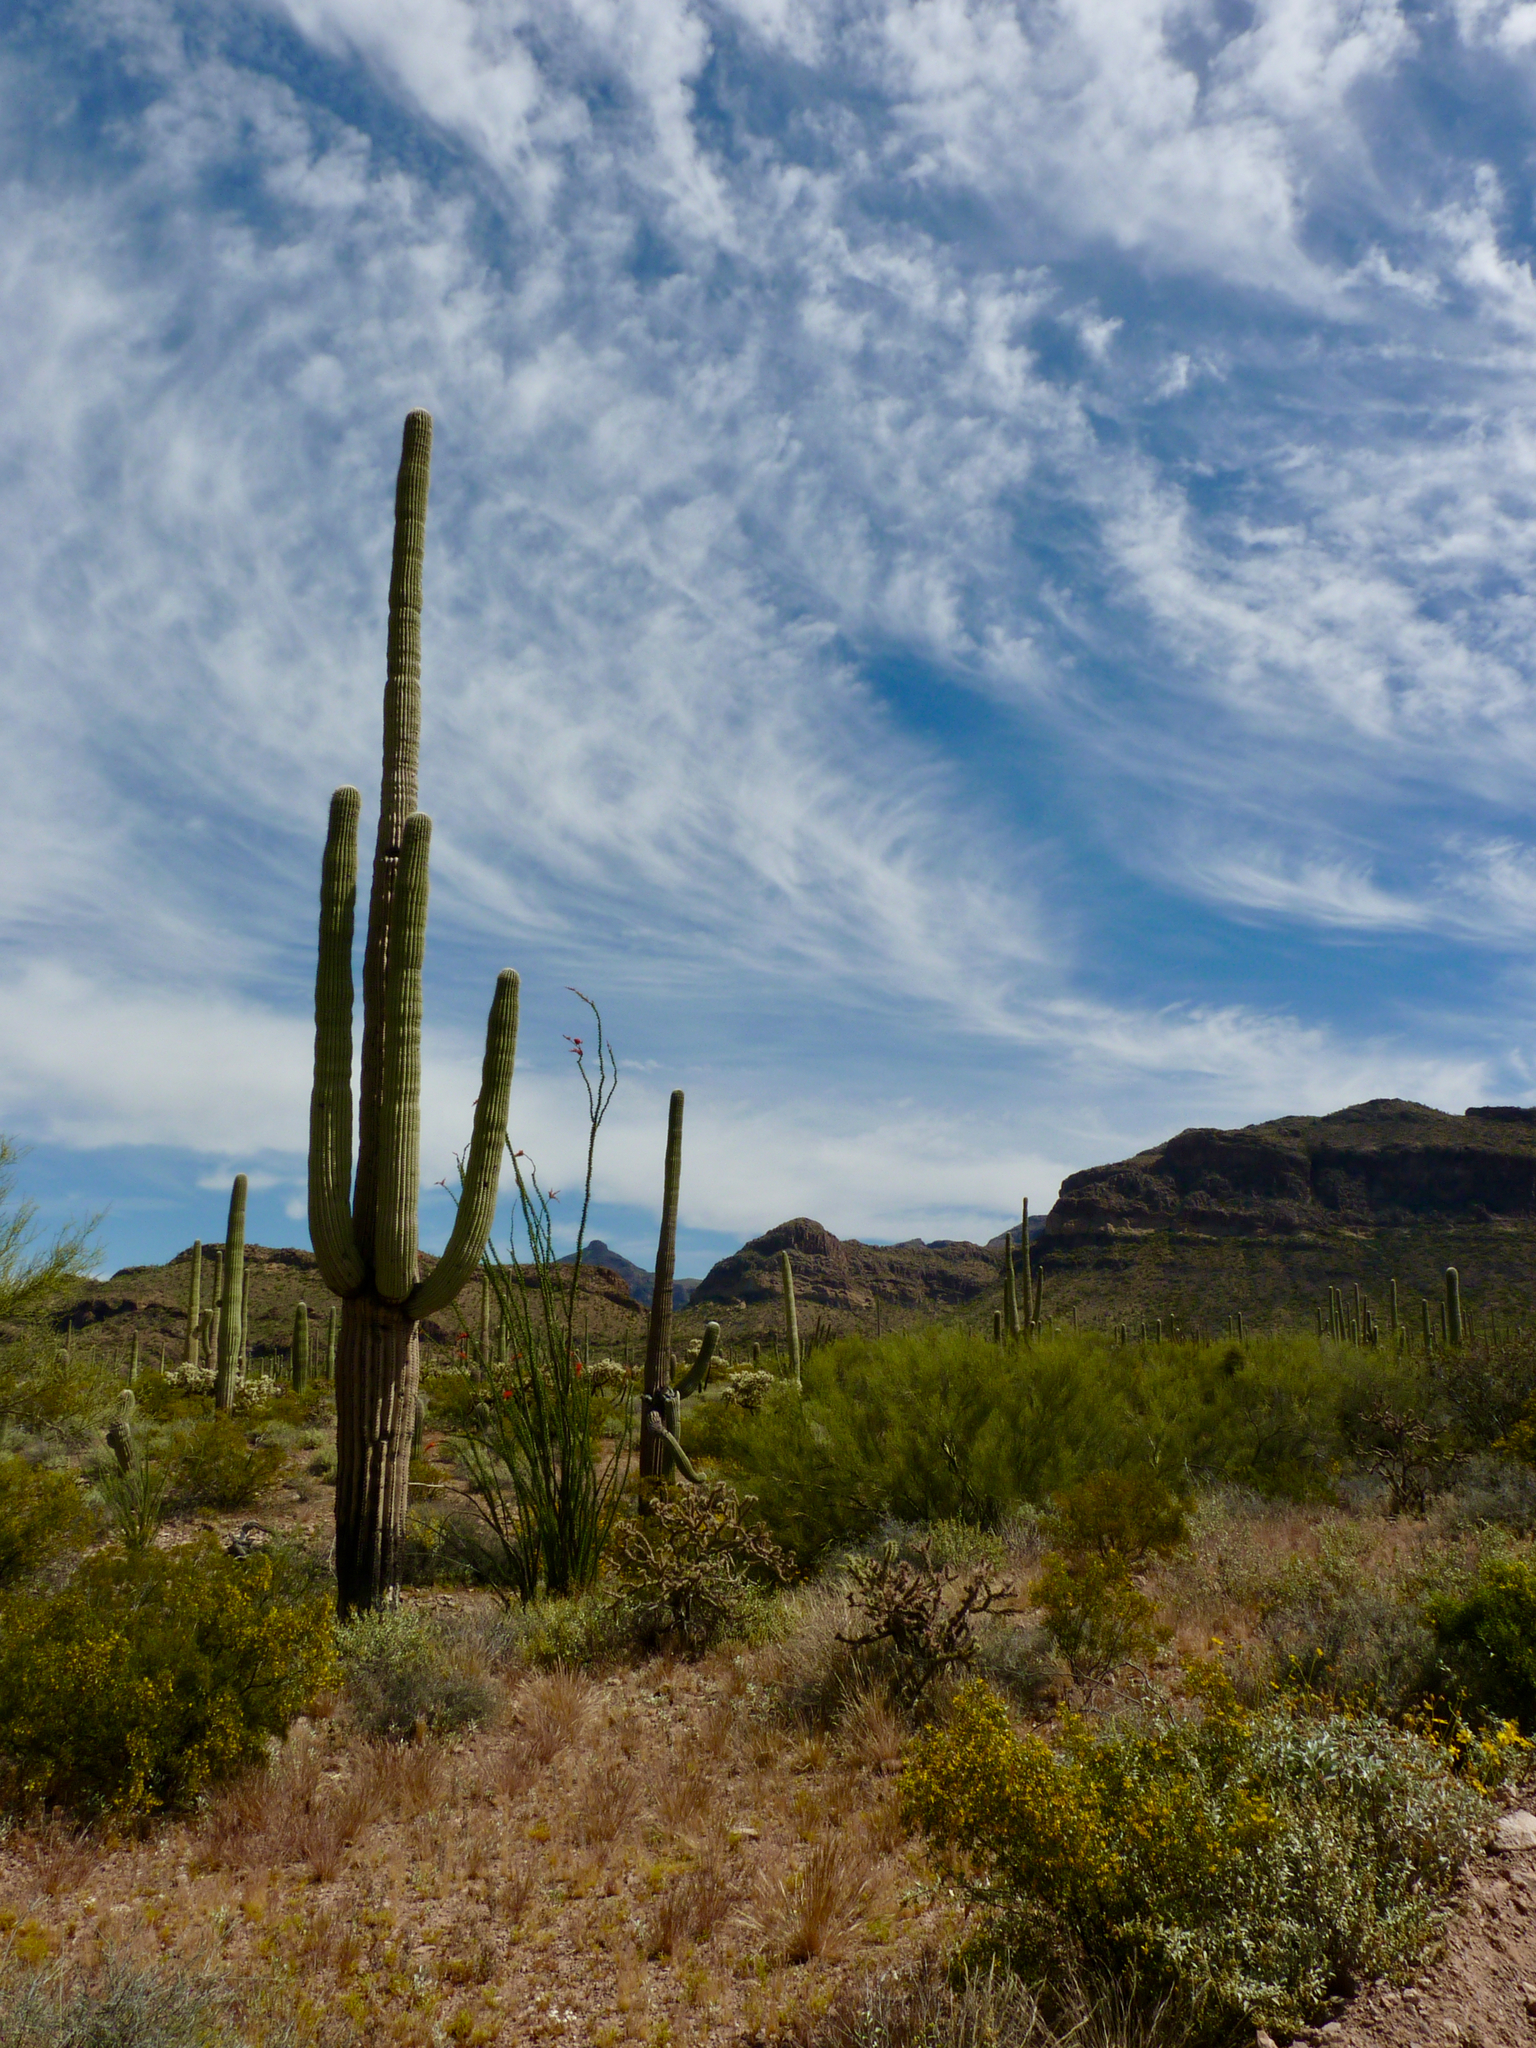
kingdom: Plantae
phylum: Tracheophyta
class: Magnoliopsida
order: Caryophyllales
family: Cactaceae
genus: Carnegiea
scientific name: Carnegiea gigantea
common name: Saguaro
